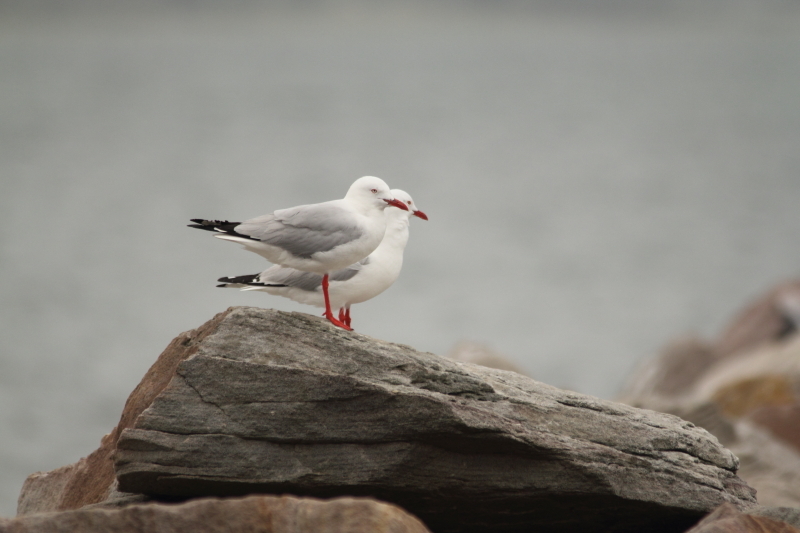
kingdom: Animalia
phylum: Chordata
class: Aves
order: Charadriiformes
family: Laridae
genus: Chroicocephalus
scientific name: Chroicocephalus novaehollandiae
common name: Silver gull
